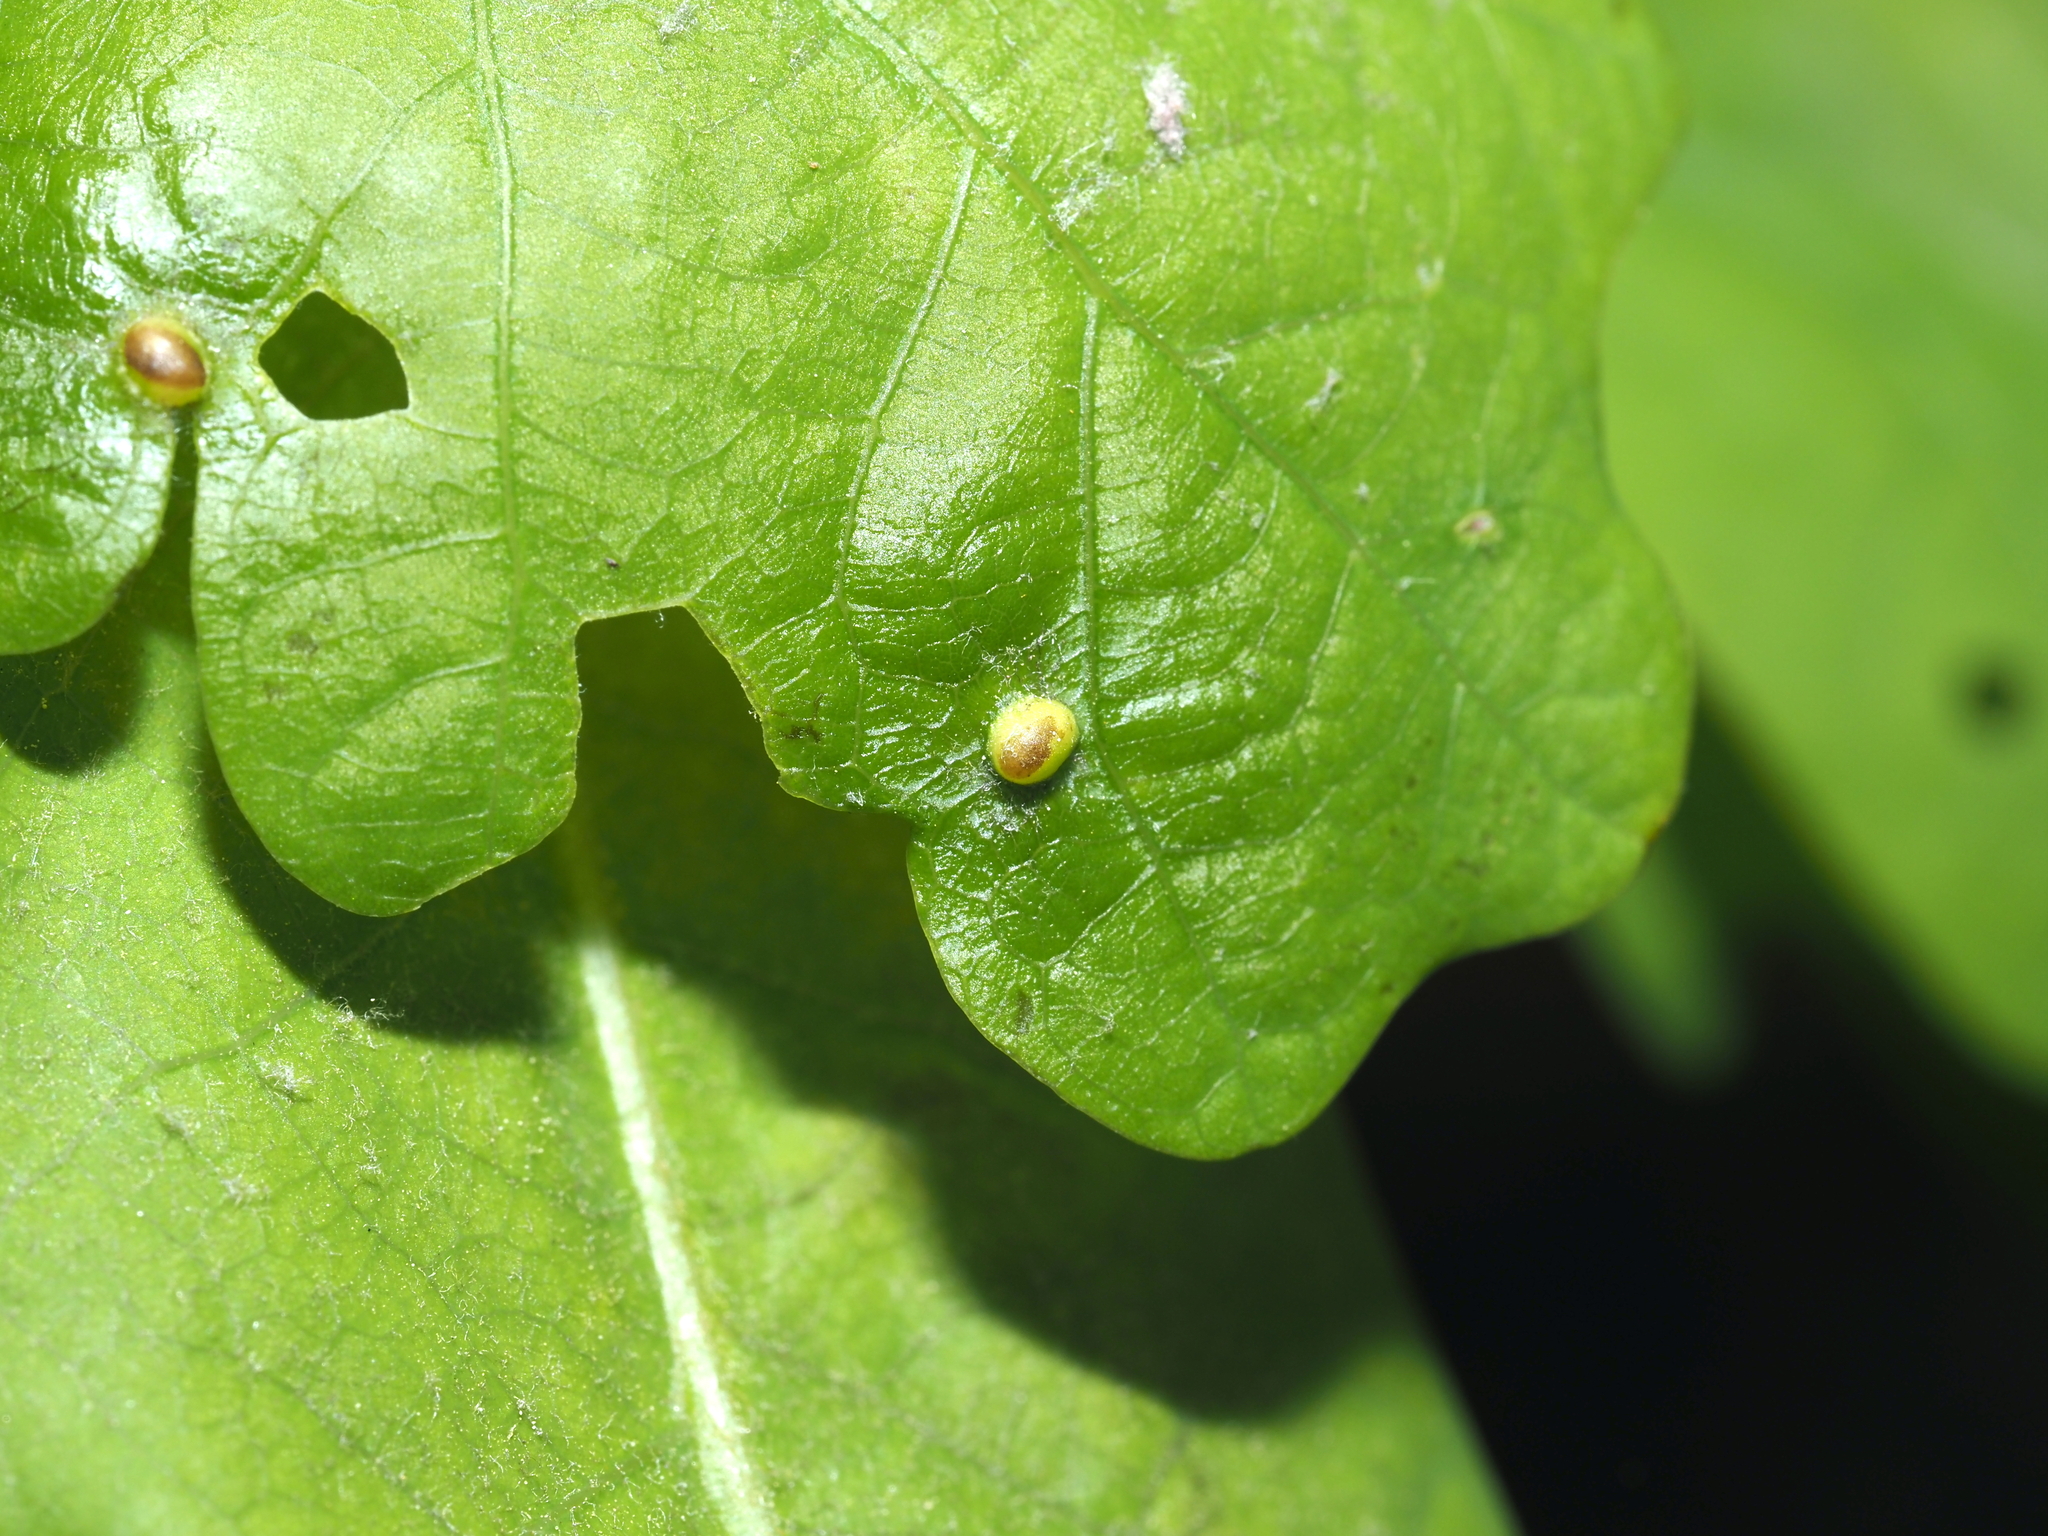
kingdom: Animalia
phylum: Arthropoda
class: Insecta
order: Hymenoptera
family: Cynipidae
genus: Neuroterus
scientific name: Neuroterus quercusverrucarum
